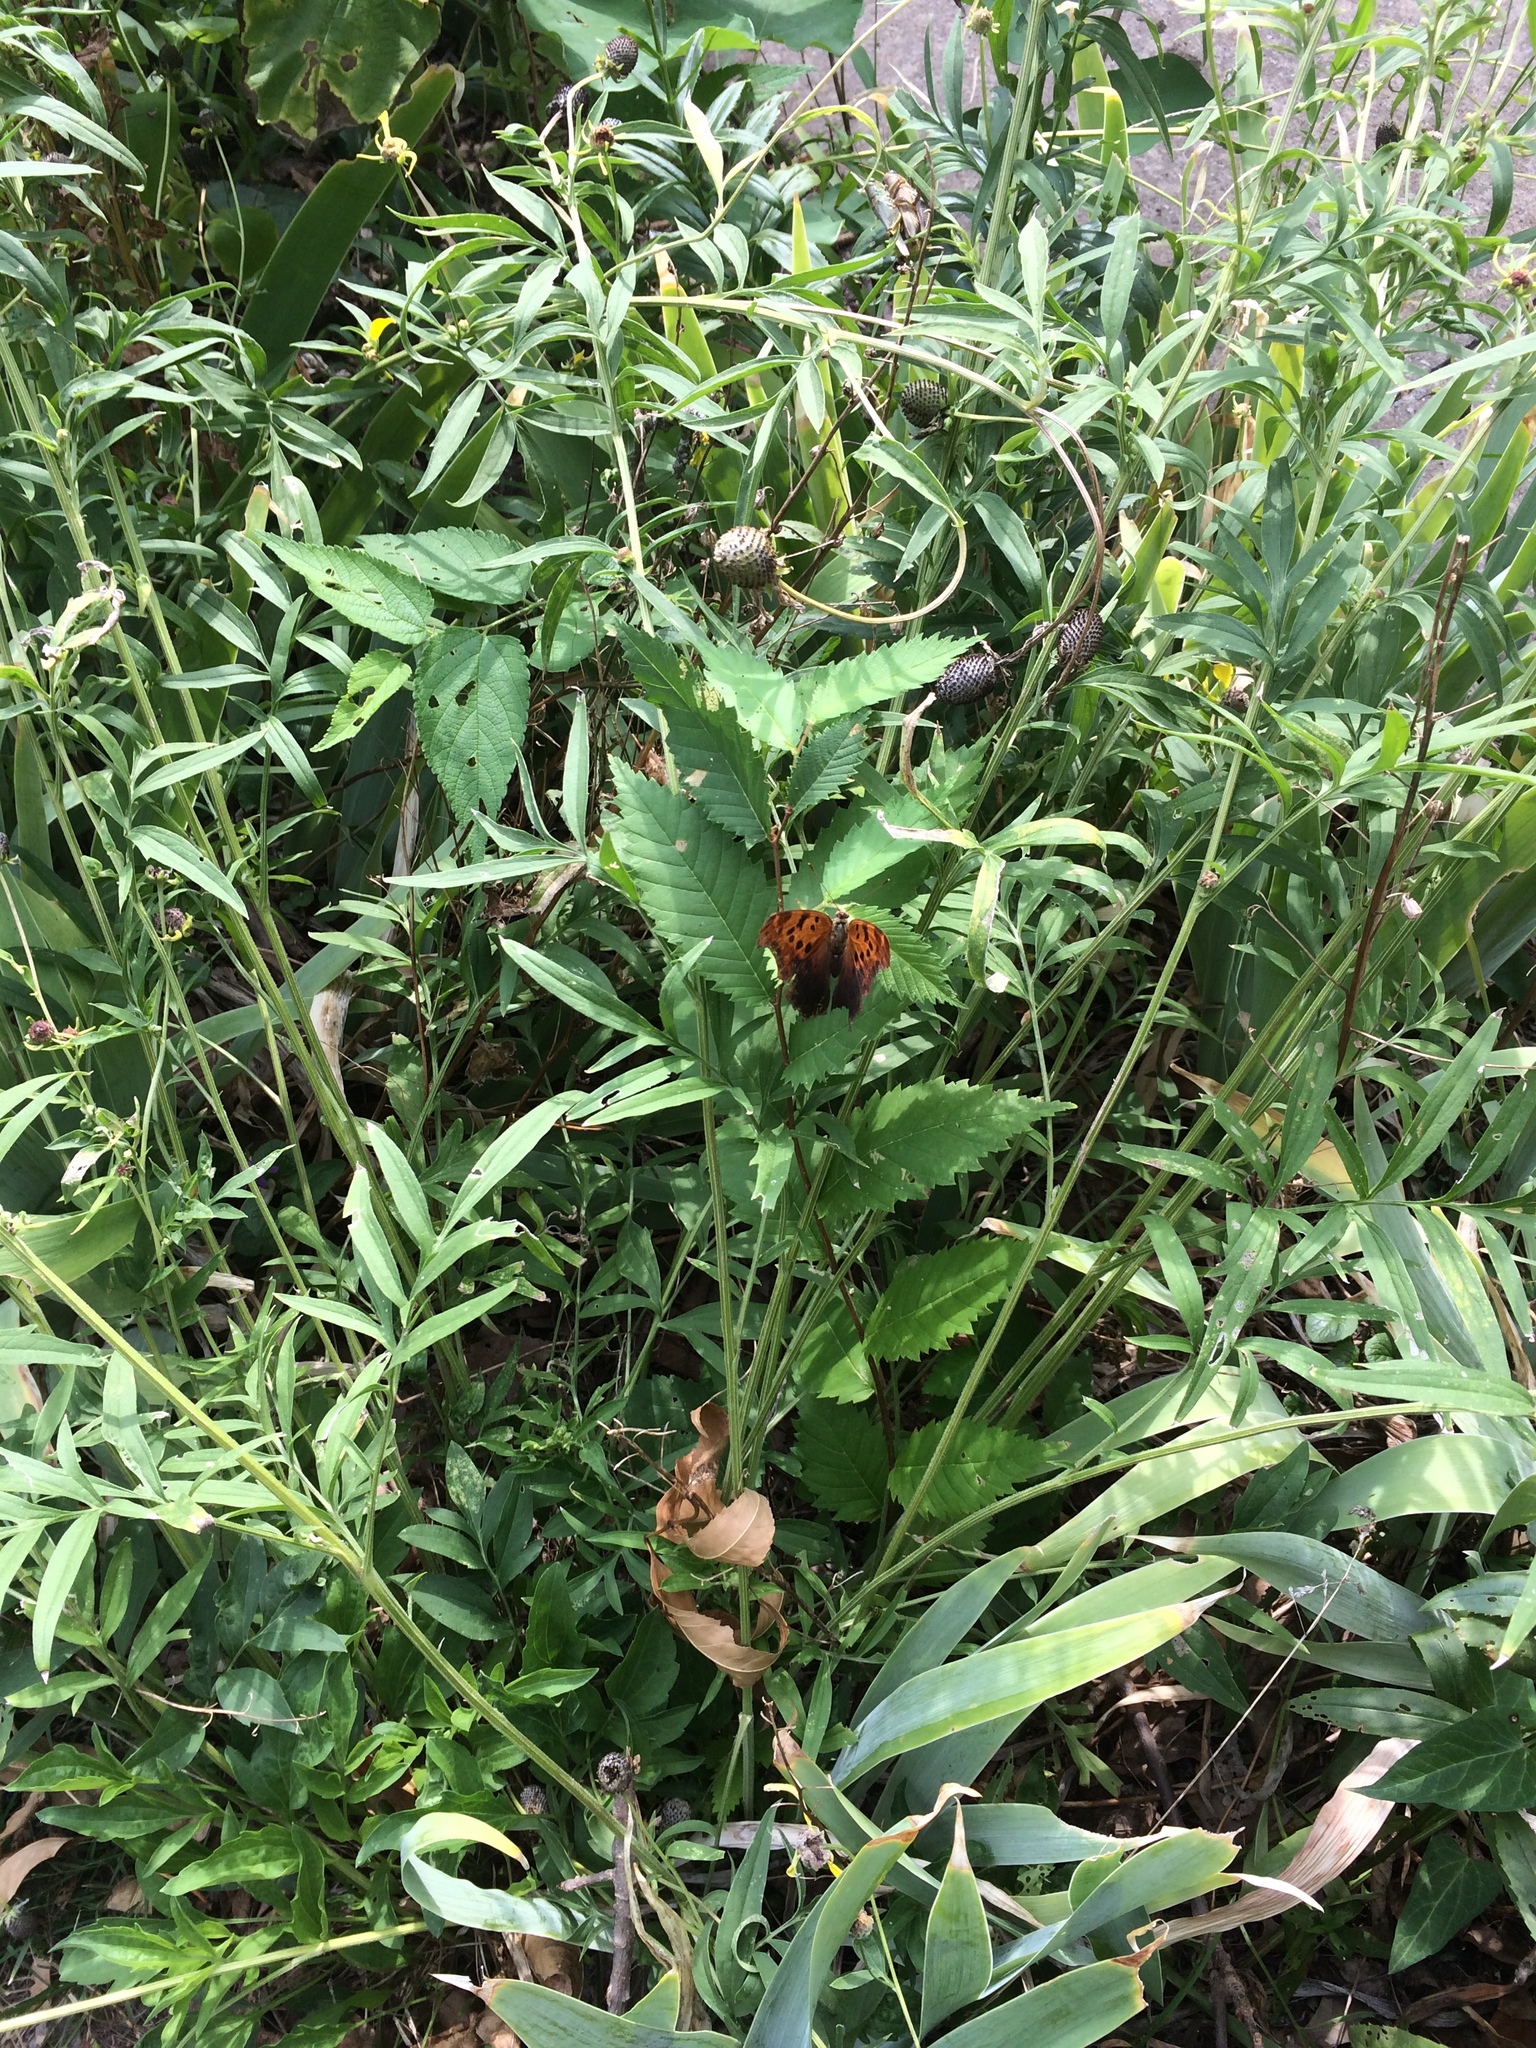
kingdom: Animalia
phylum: Arthropoda
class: Insecta
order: Lepidoptera
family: Nymphalidae
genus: Polygonia
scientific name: Polygonia interrogationis
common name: Question mark
